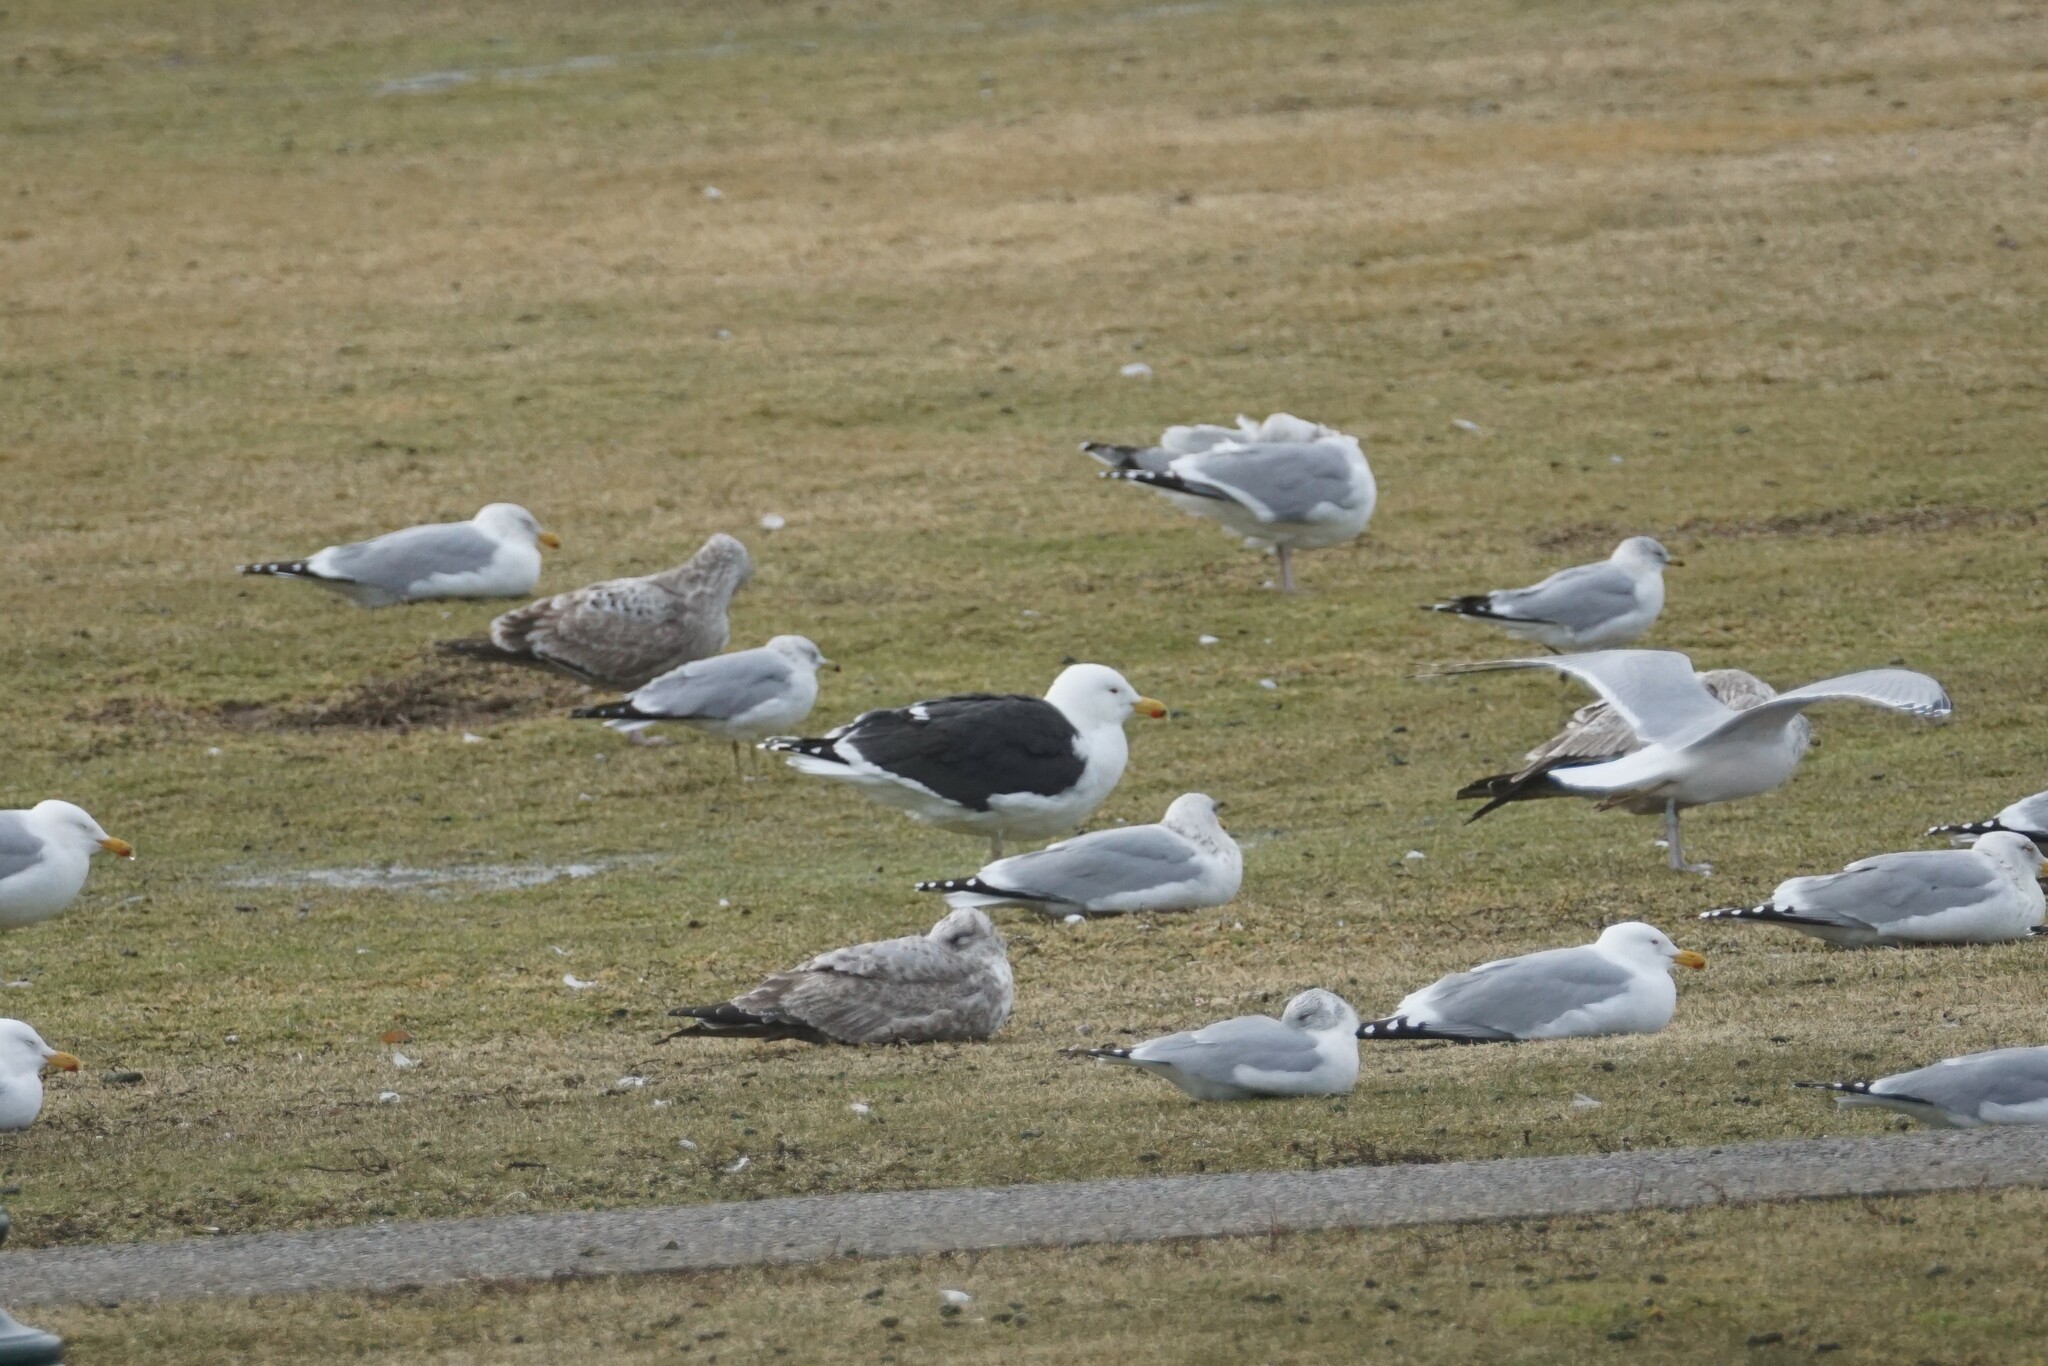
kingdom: Animalia
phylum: Chordata
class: Aves
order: Charadriiformes
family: Laridae
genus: Larus
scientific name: Larus marinus
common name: Great black-backed gull
